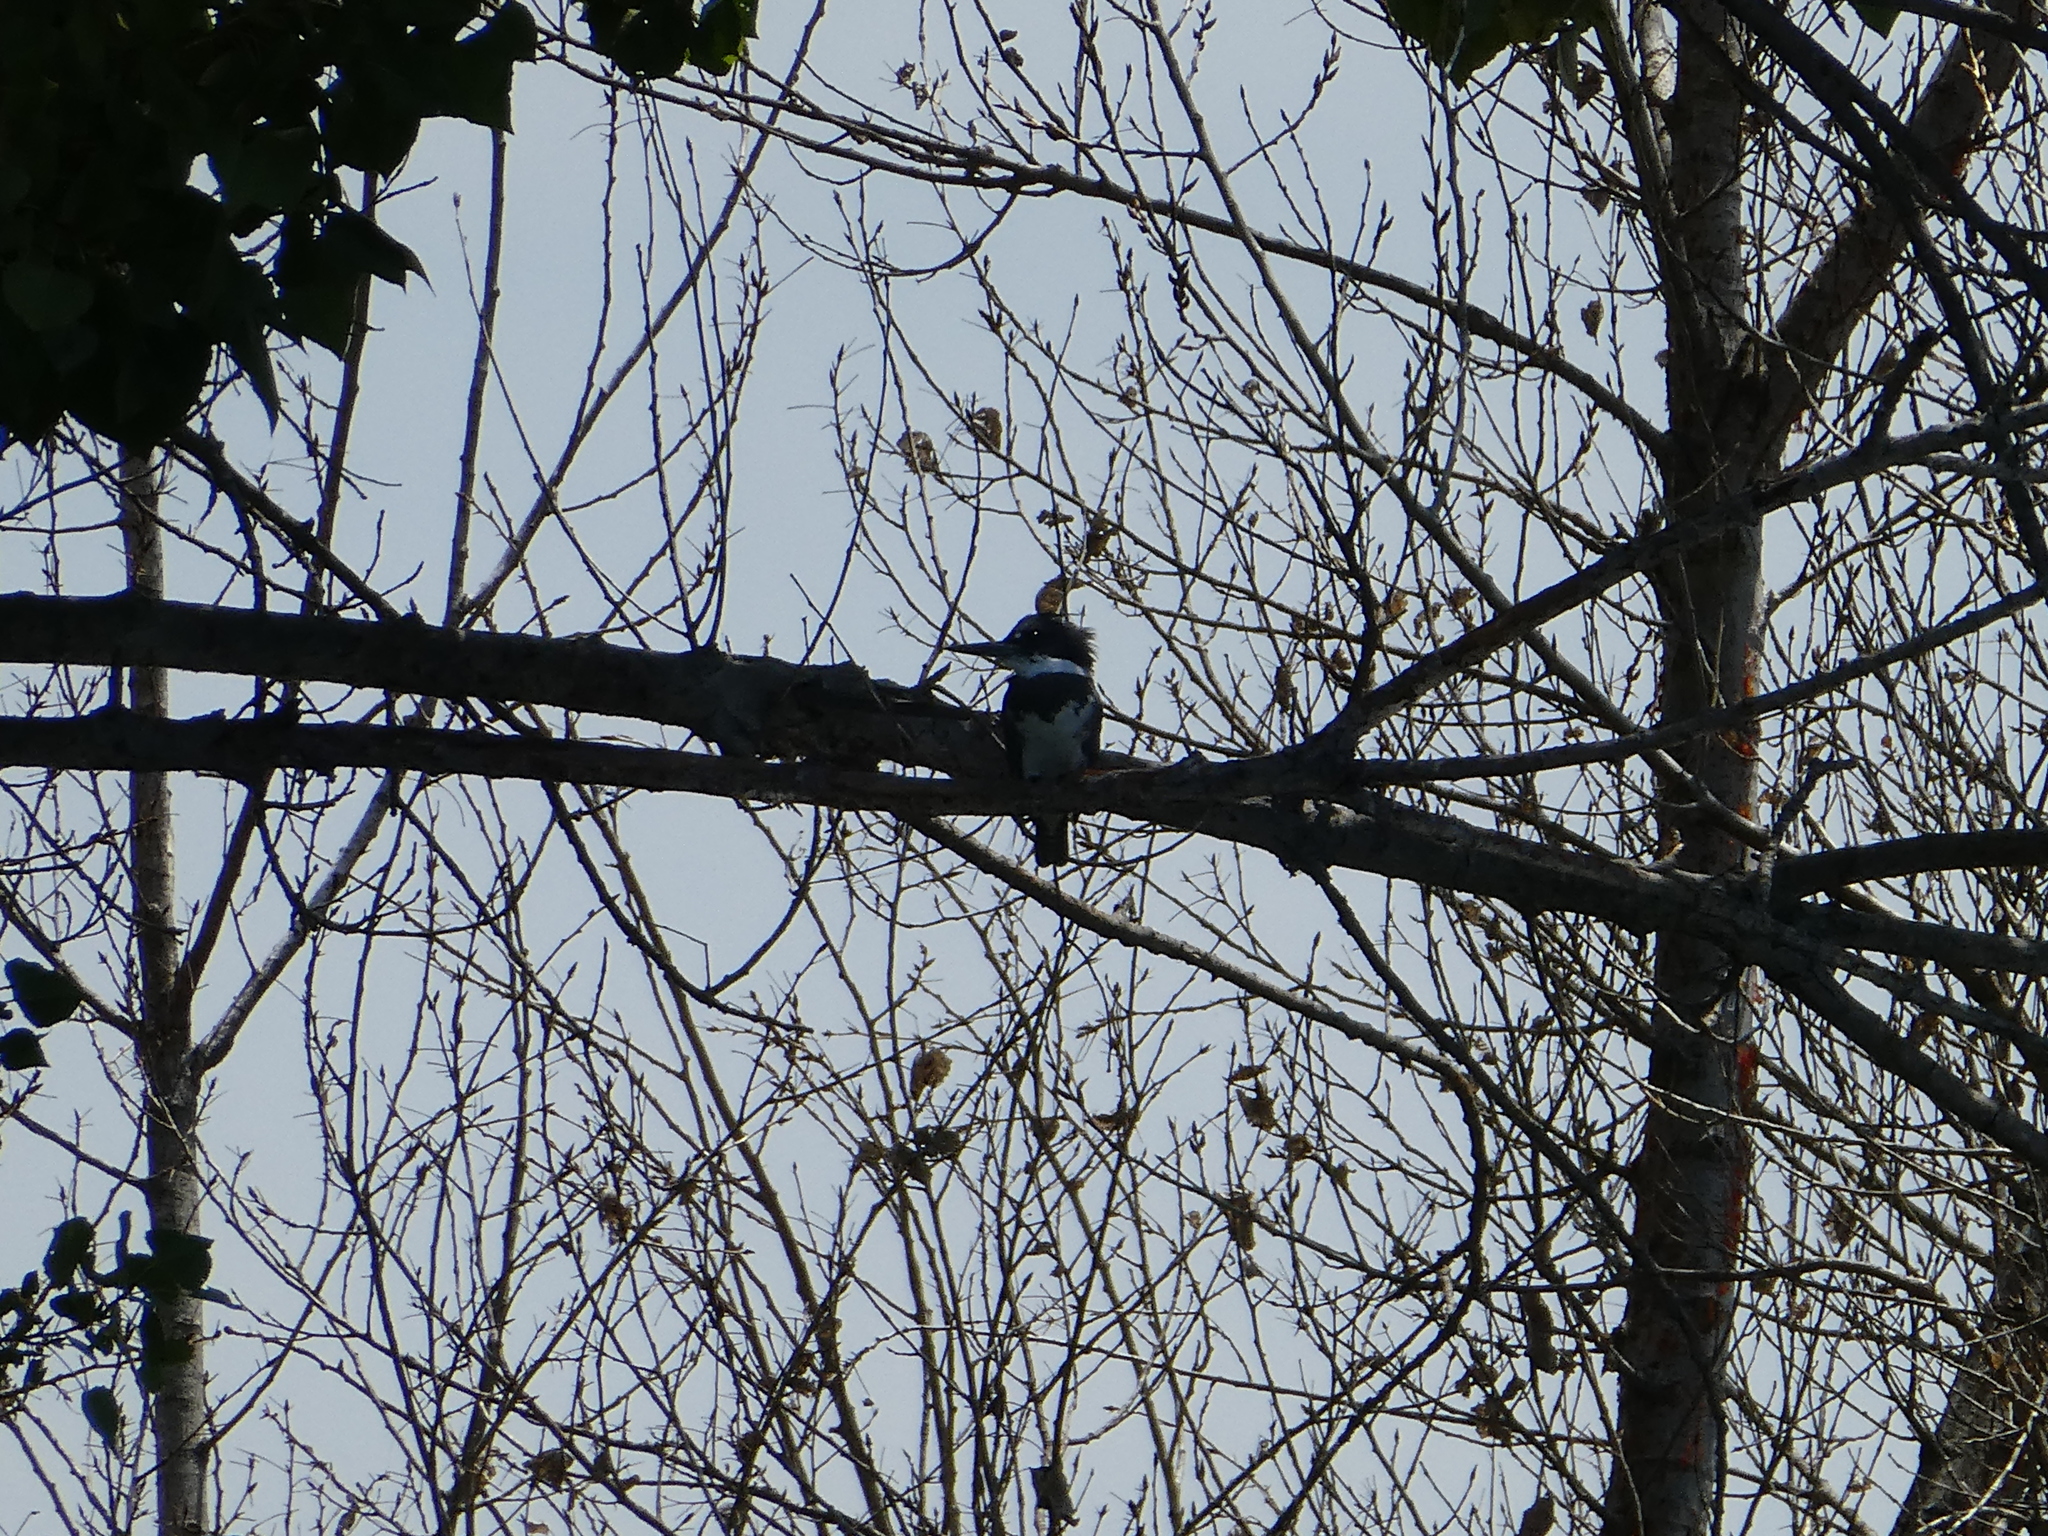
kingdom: Animalia
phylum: Chordata
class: Aves
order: Coraciiformes
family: Alcedinidae
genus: Megaceryle
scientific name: Megaceryle alcyon
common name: Belted kingfisher
